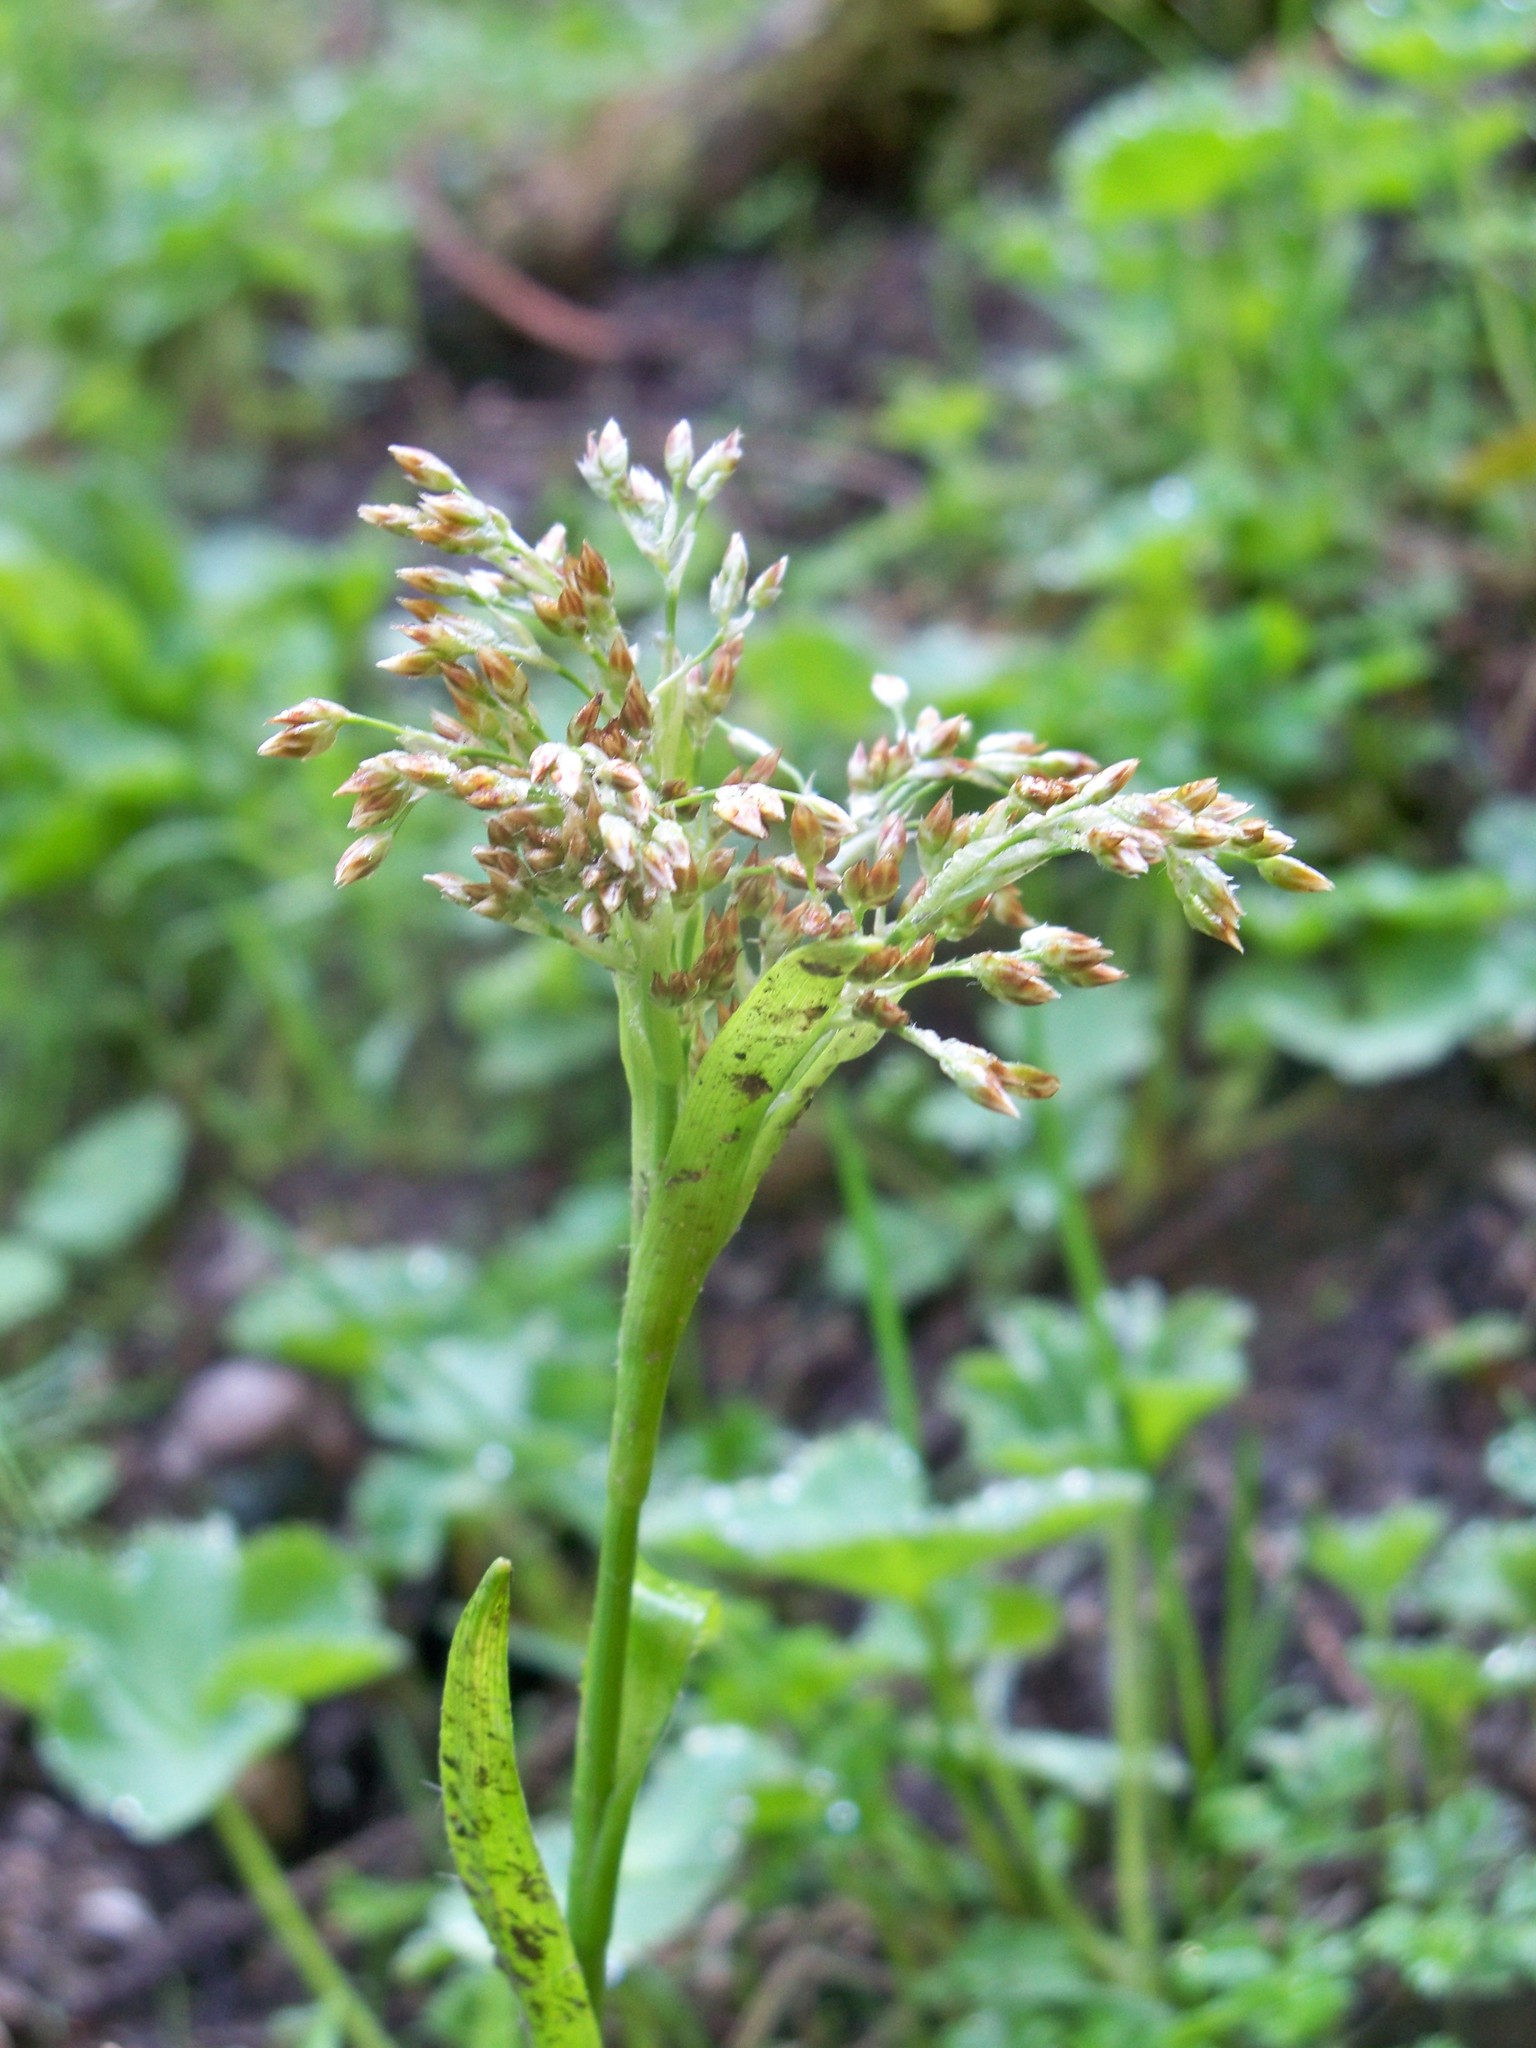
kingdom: Plantae
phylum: Tracheophyta
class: Liliopsida
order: Poales
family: Cyperaceae
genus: Scirpus
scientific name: Scirpus sylvaticus
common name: Wood club-rush
